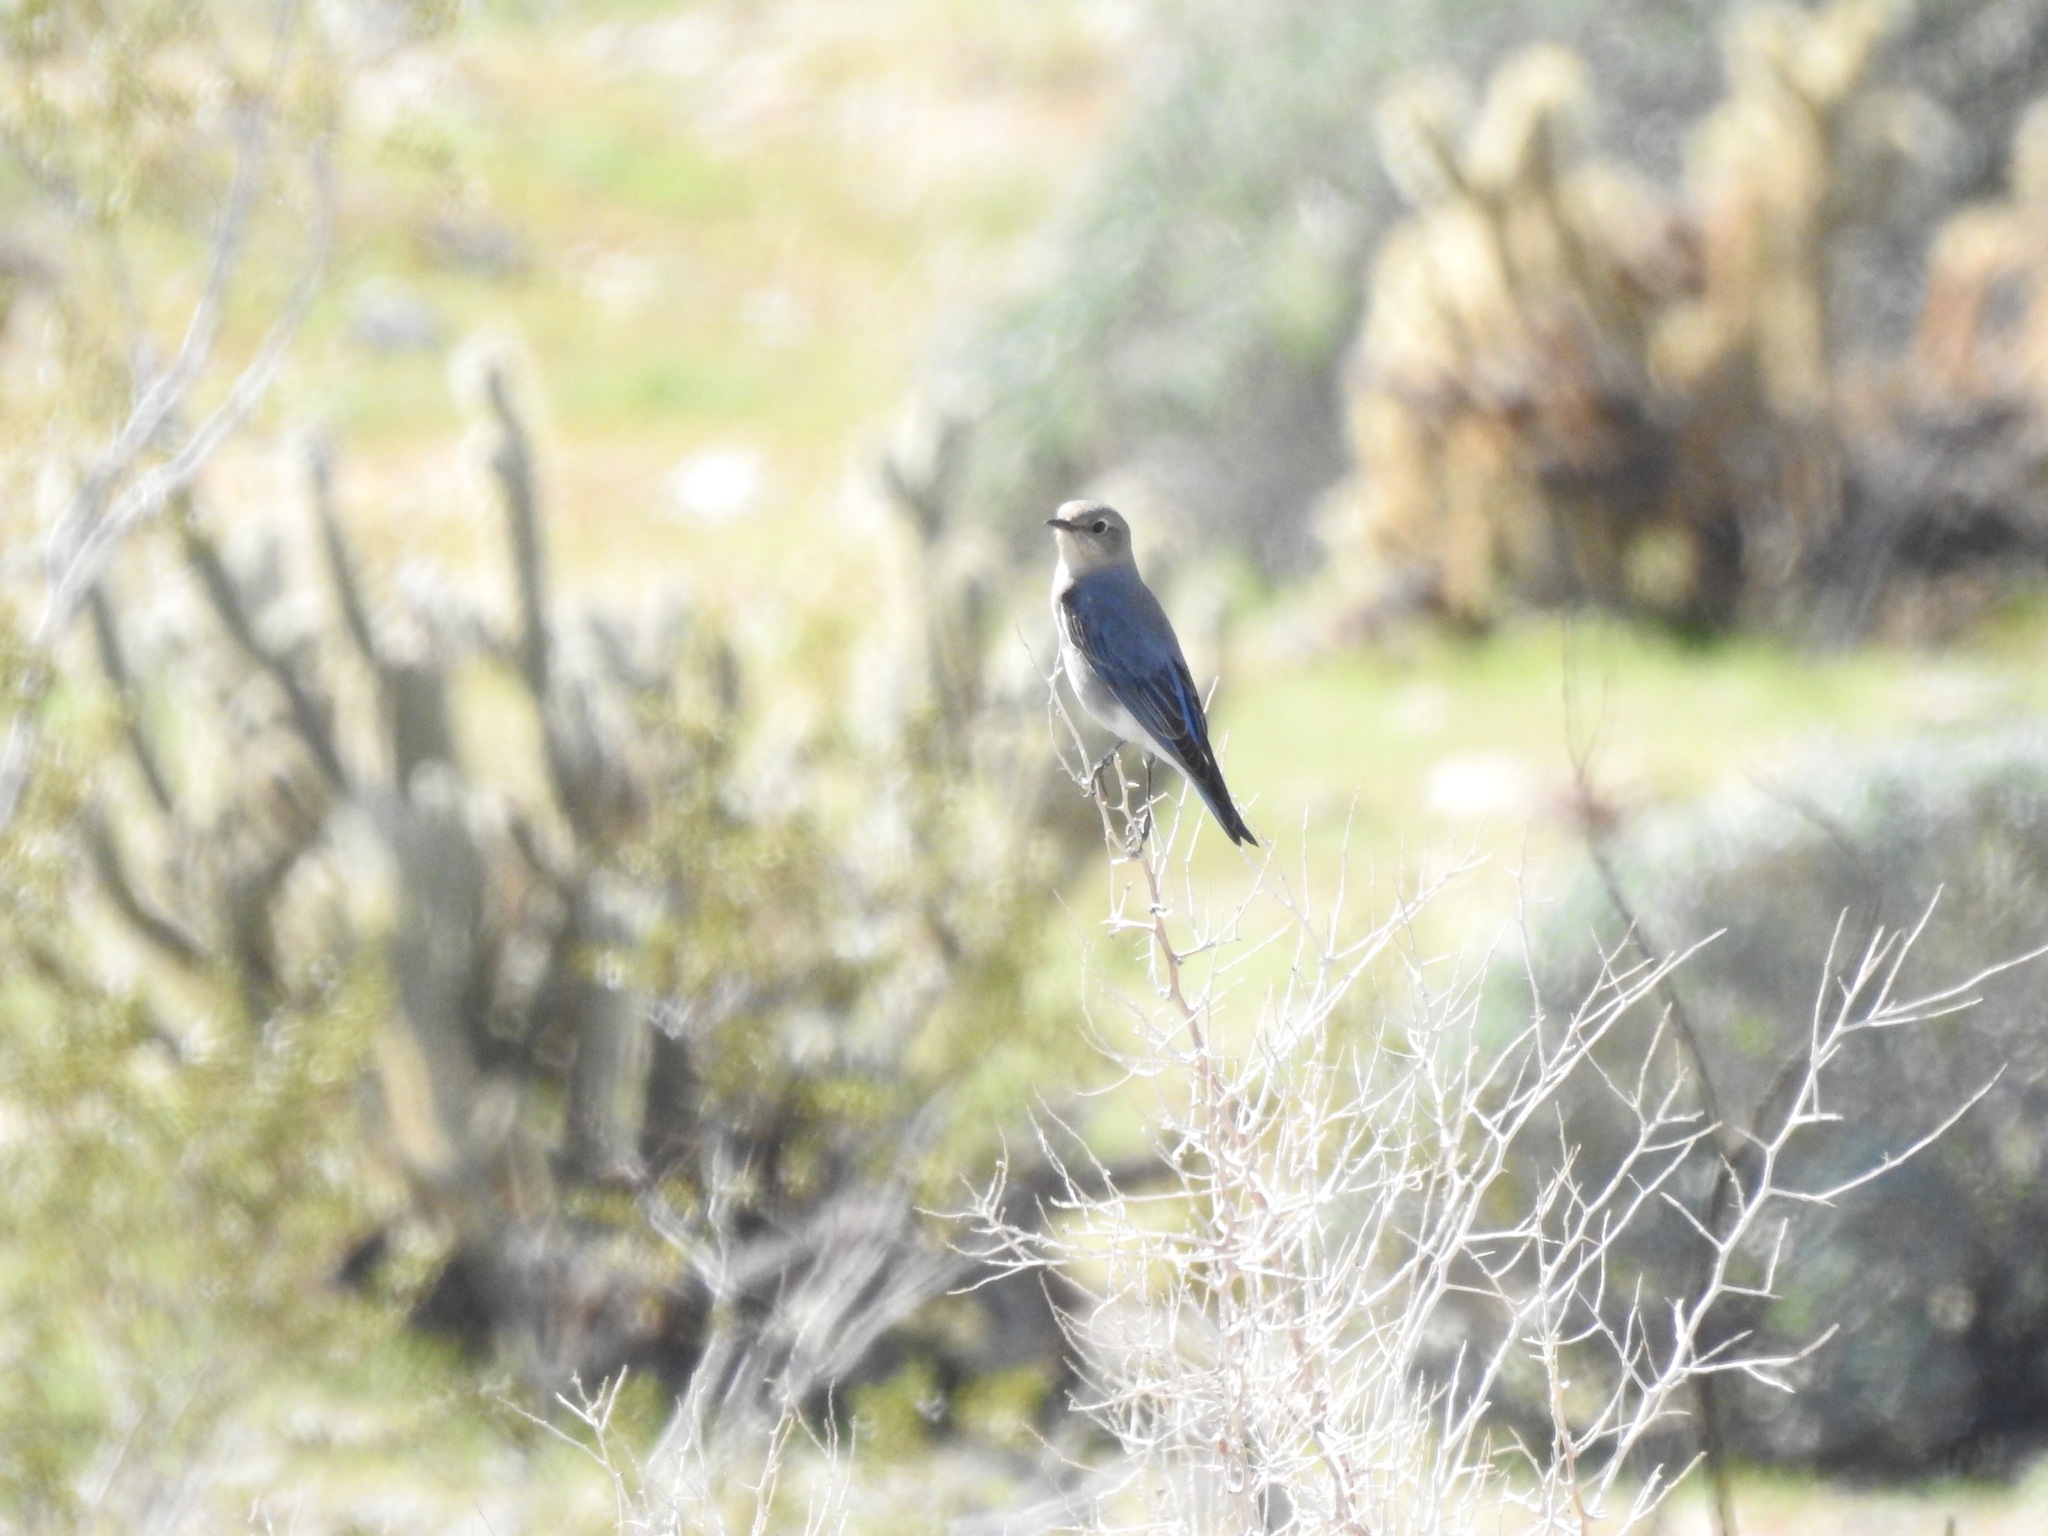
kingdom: Animalia
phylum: Chordata
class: Aves
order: Passeriformes
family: Turdidae
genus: Sialia
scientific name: Sialia currucoides
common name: Mountain bluebird
